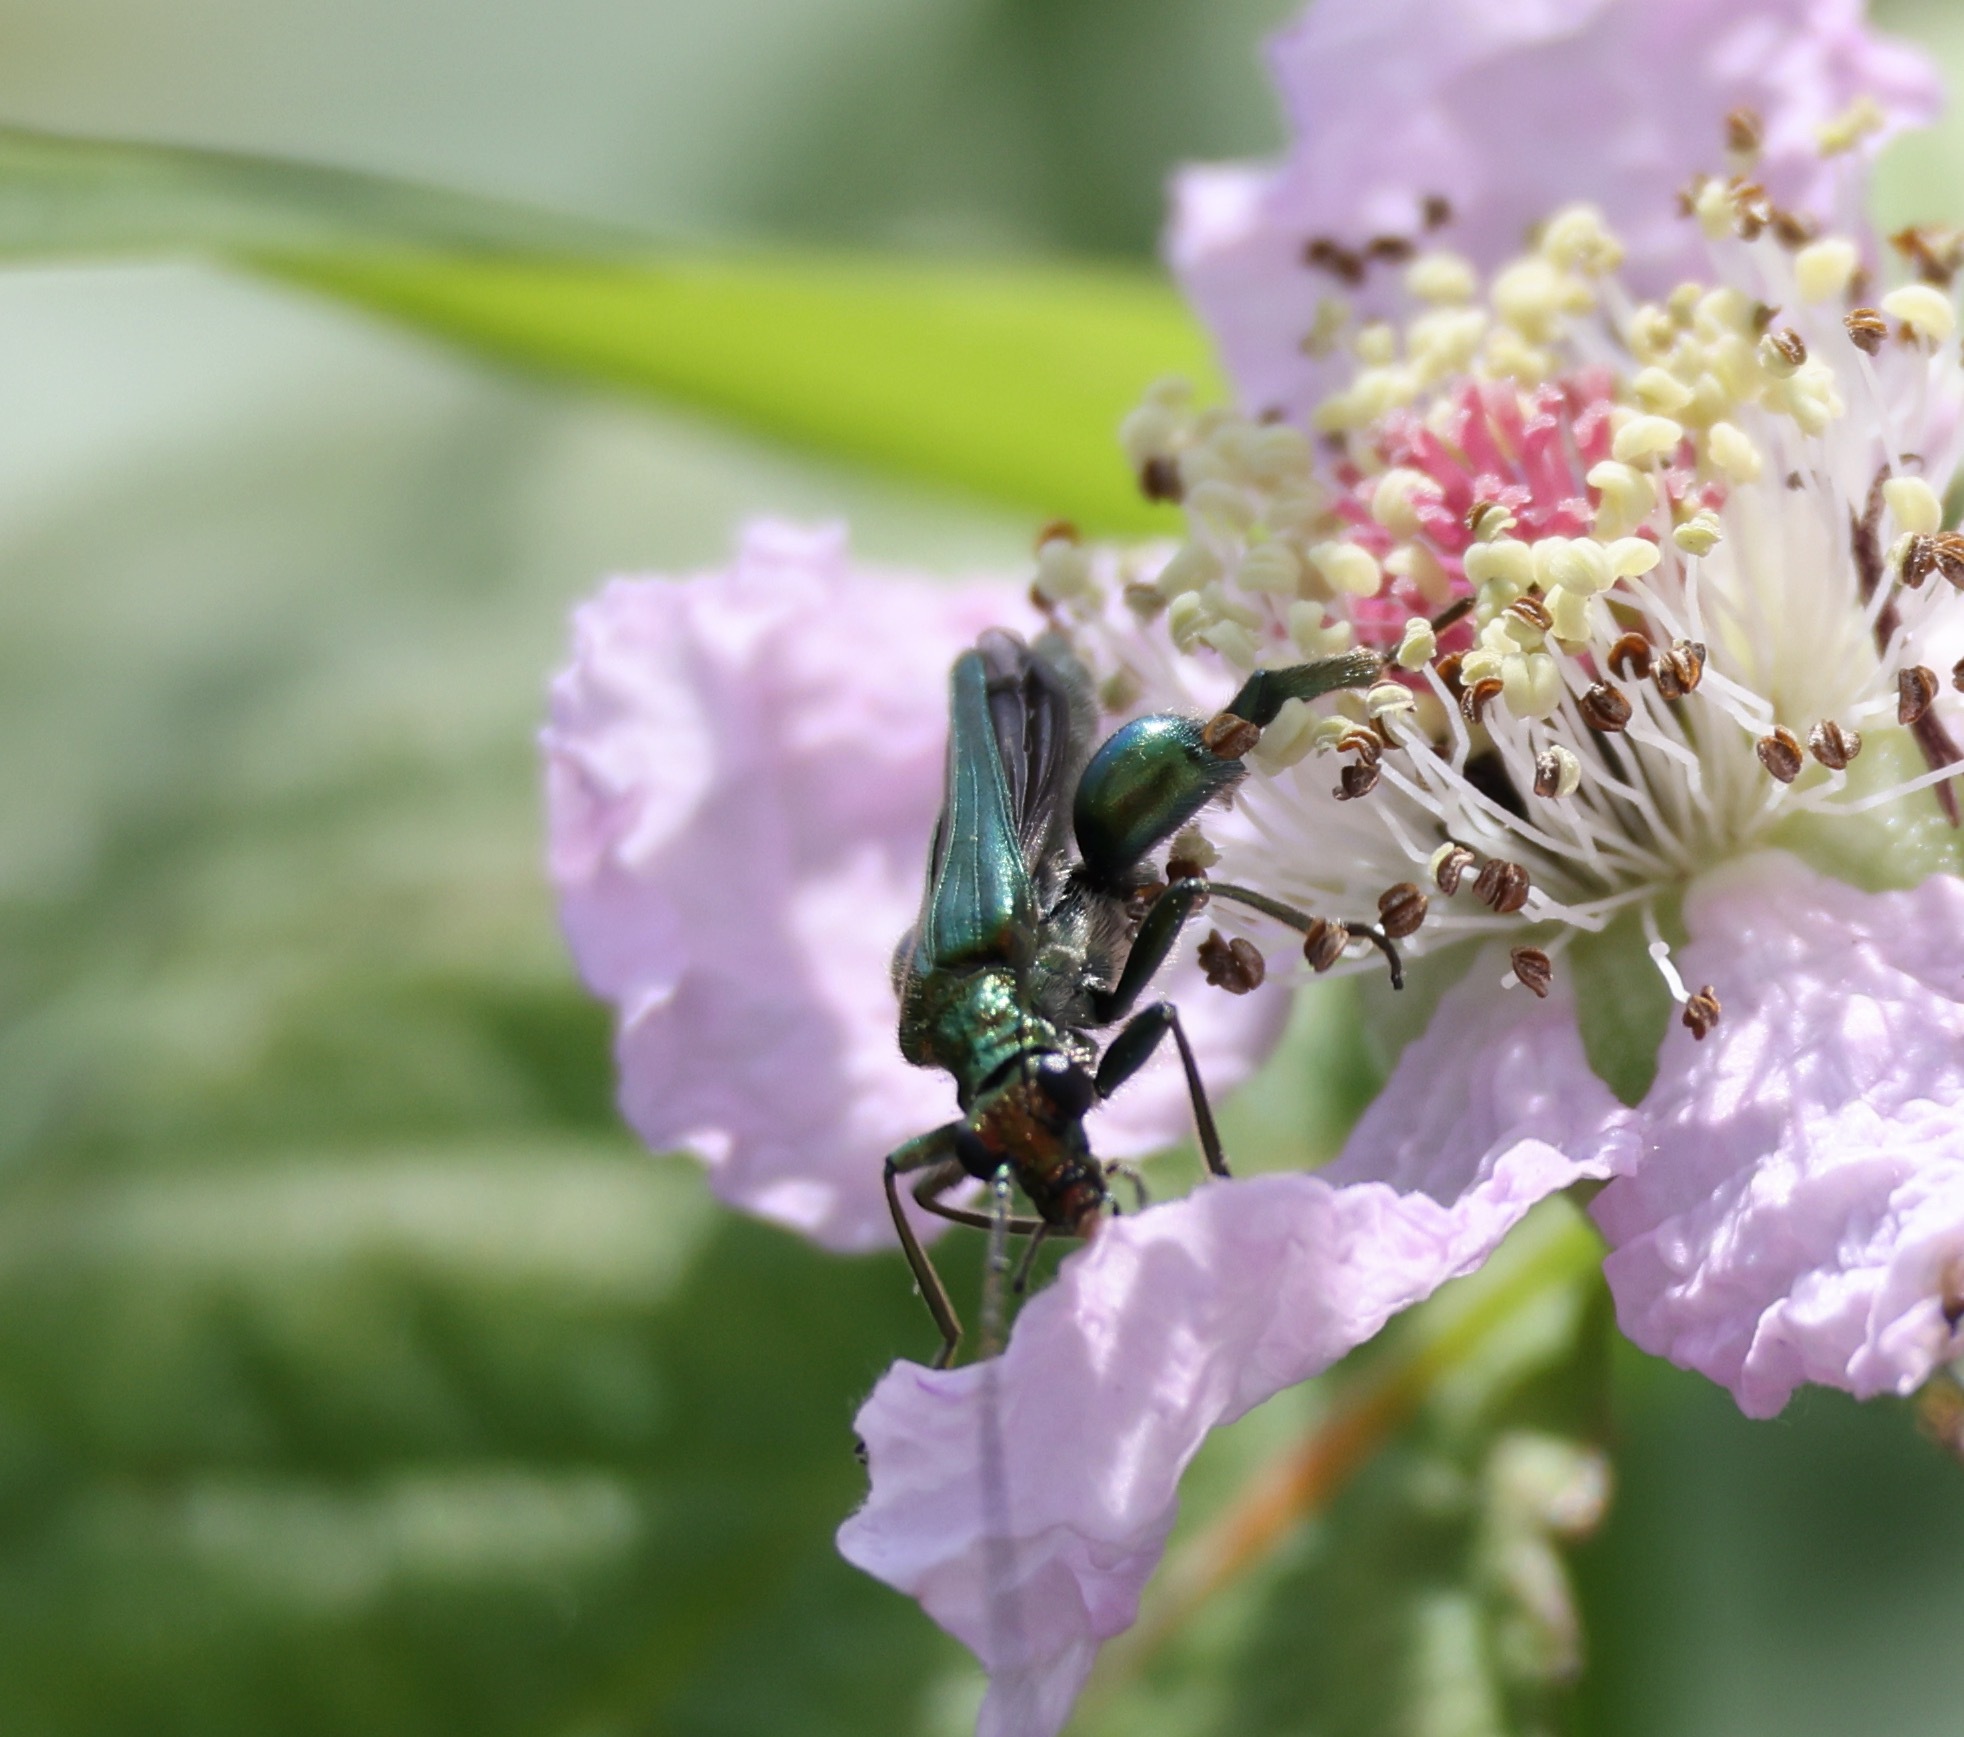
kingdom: Animalia
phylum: Arthropoda
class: Insecta
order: Coleoptera
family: Oedemeridae
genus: Oedemera
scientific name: Oedemera nobilis
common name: Swollen-thighed beetle
